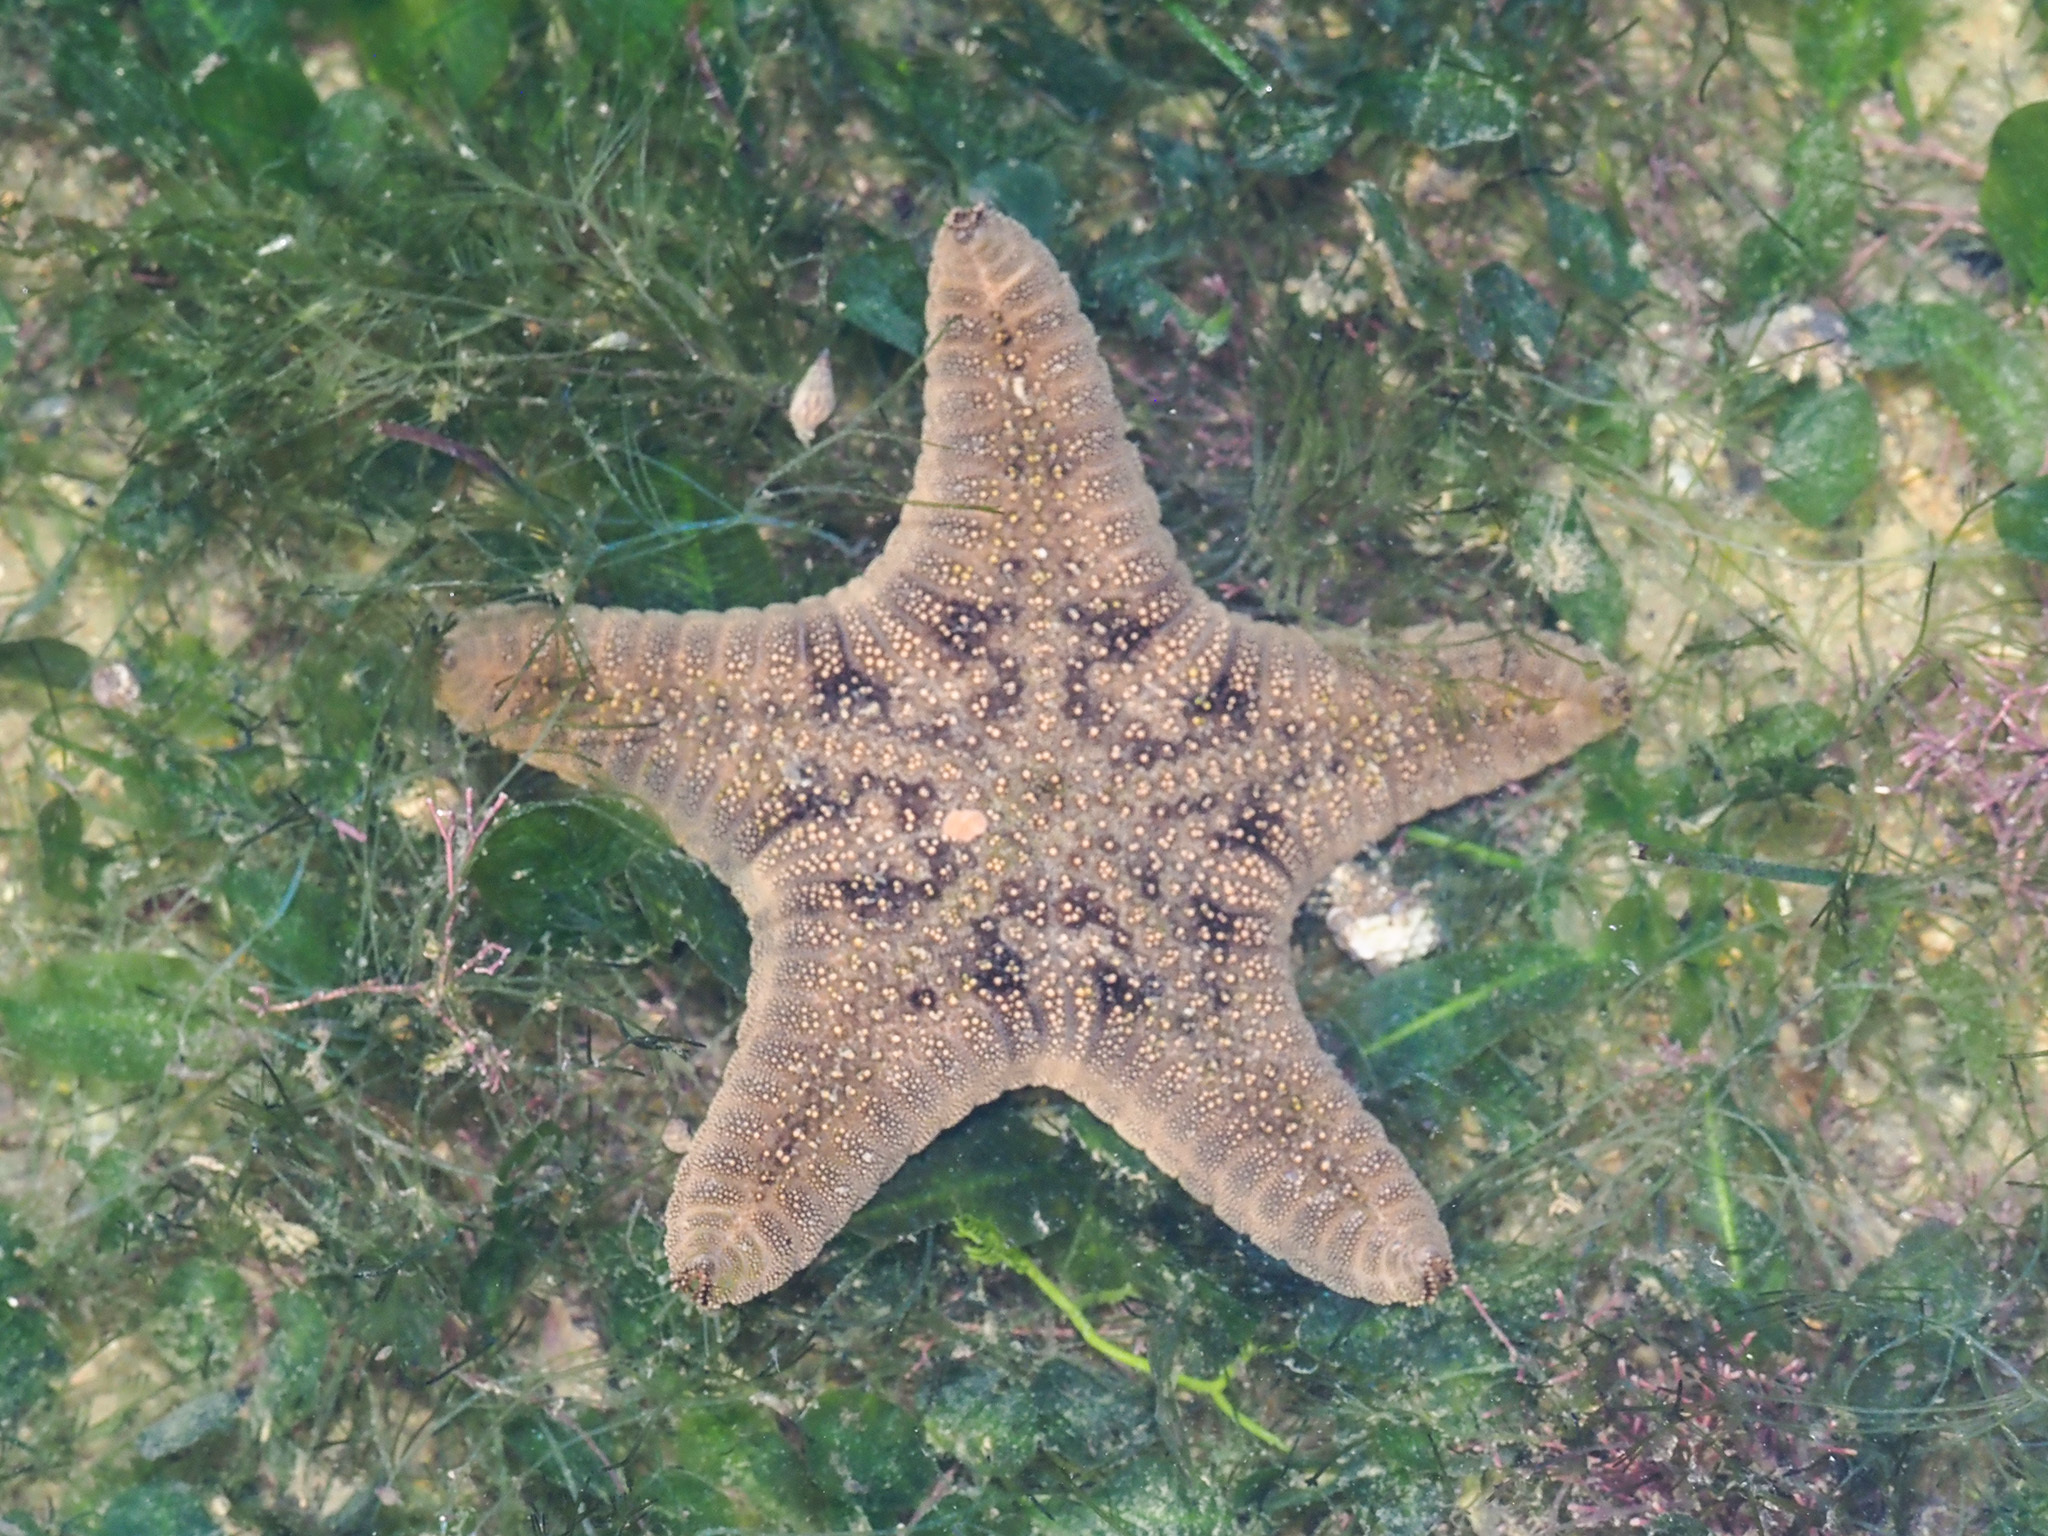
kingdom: Animalia
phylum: Echinodermata
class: Asteroidea
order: Valvatida
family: Goniasteridae
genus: Goniodiscaster
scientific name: Goniodiscaster scaber
